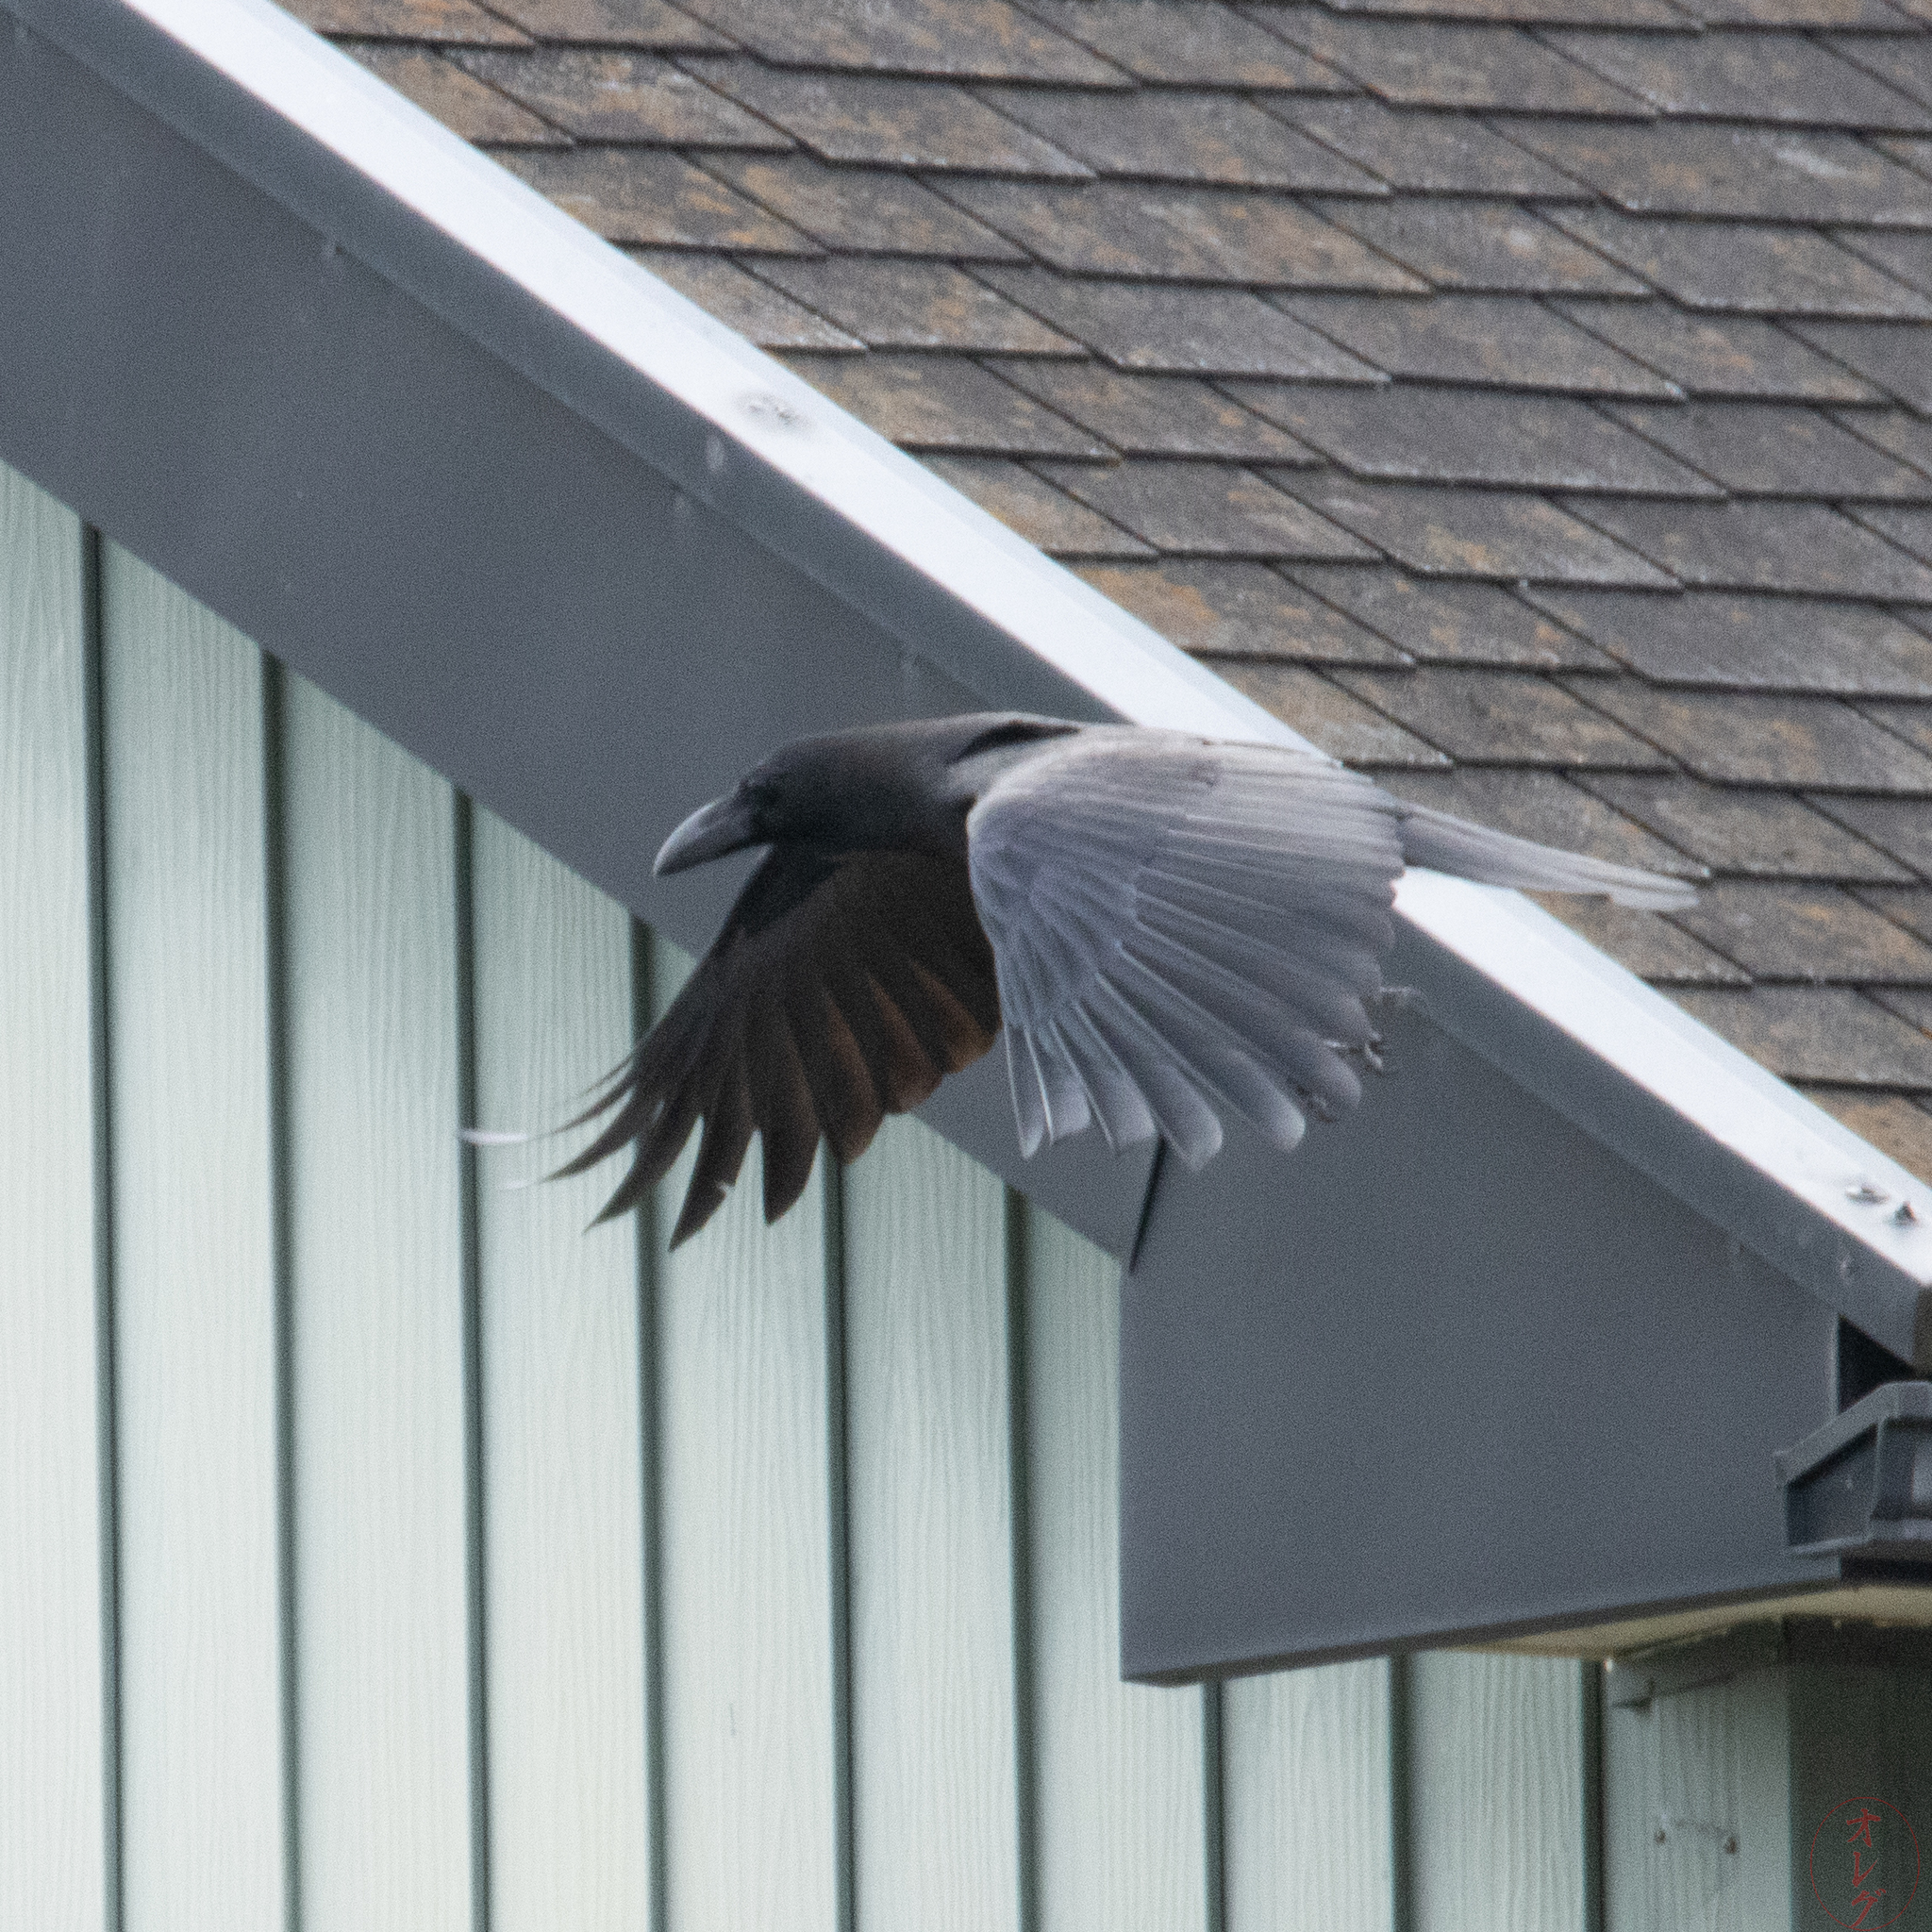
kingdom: Animalia
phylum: Chordata
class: Aves
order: Passeriformes
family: Corvidae
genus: Corvus
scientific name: Corvus macrorhynchos
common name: Large-billed crow
